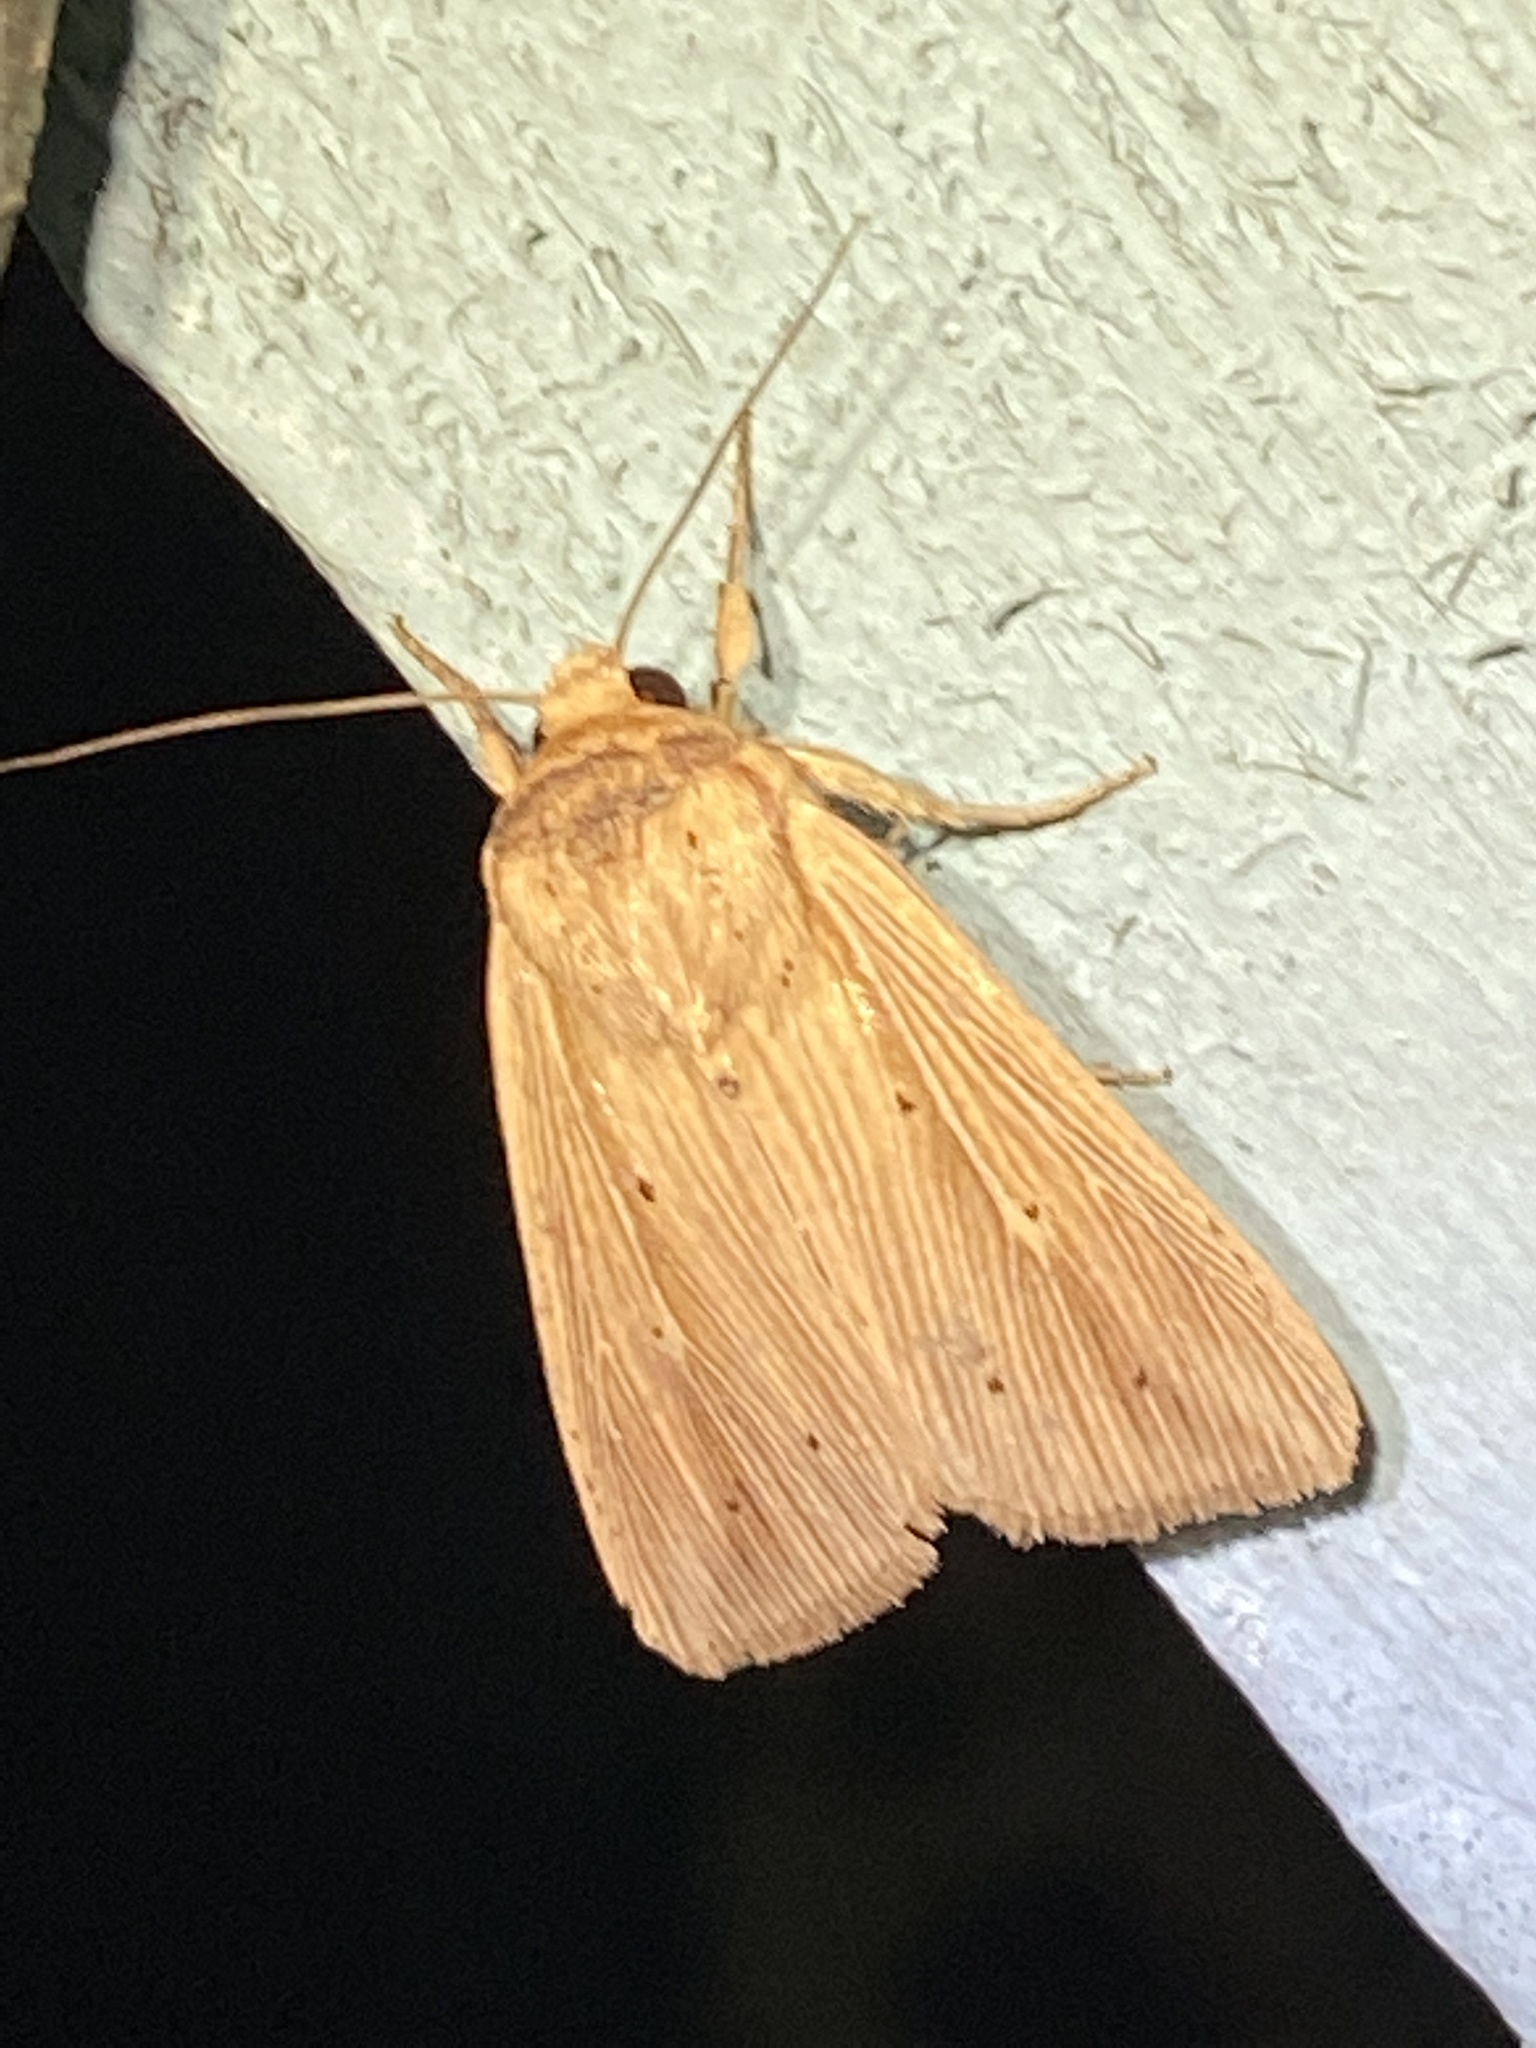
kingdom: Animalia
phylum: Arthropoda
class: Insecta
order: Lepidoptera
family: Noctuidae
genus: Leucania
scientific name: Leucania adjuta
